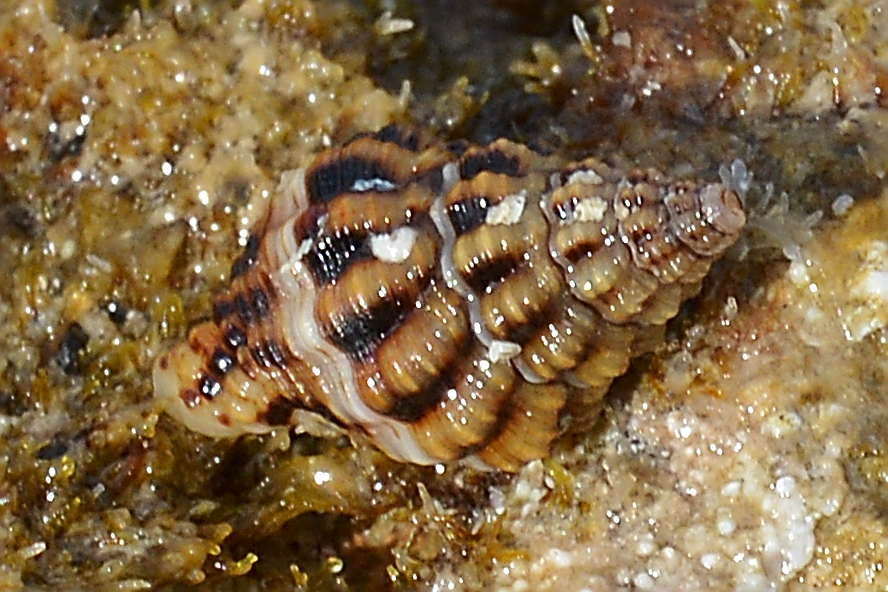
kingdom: Animalia
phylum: Mollusca
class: Gastropoda
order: Neogastropoda
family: Pisaniidae
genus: Aplus
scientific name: Aplus dorbignyi
